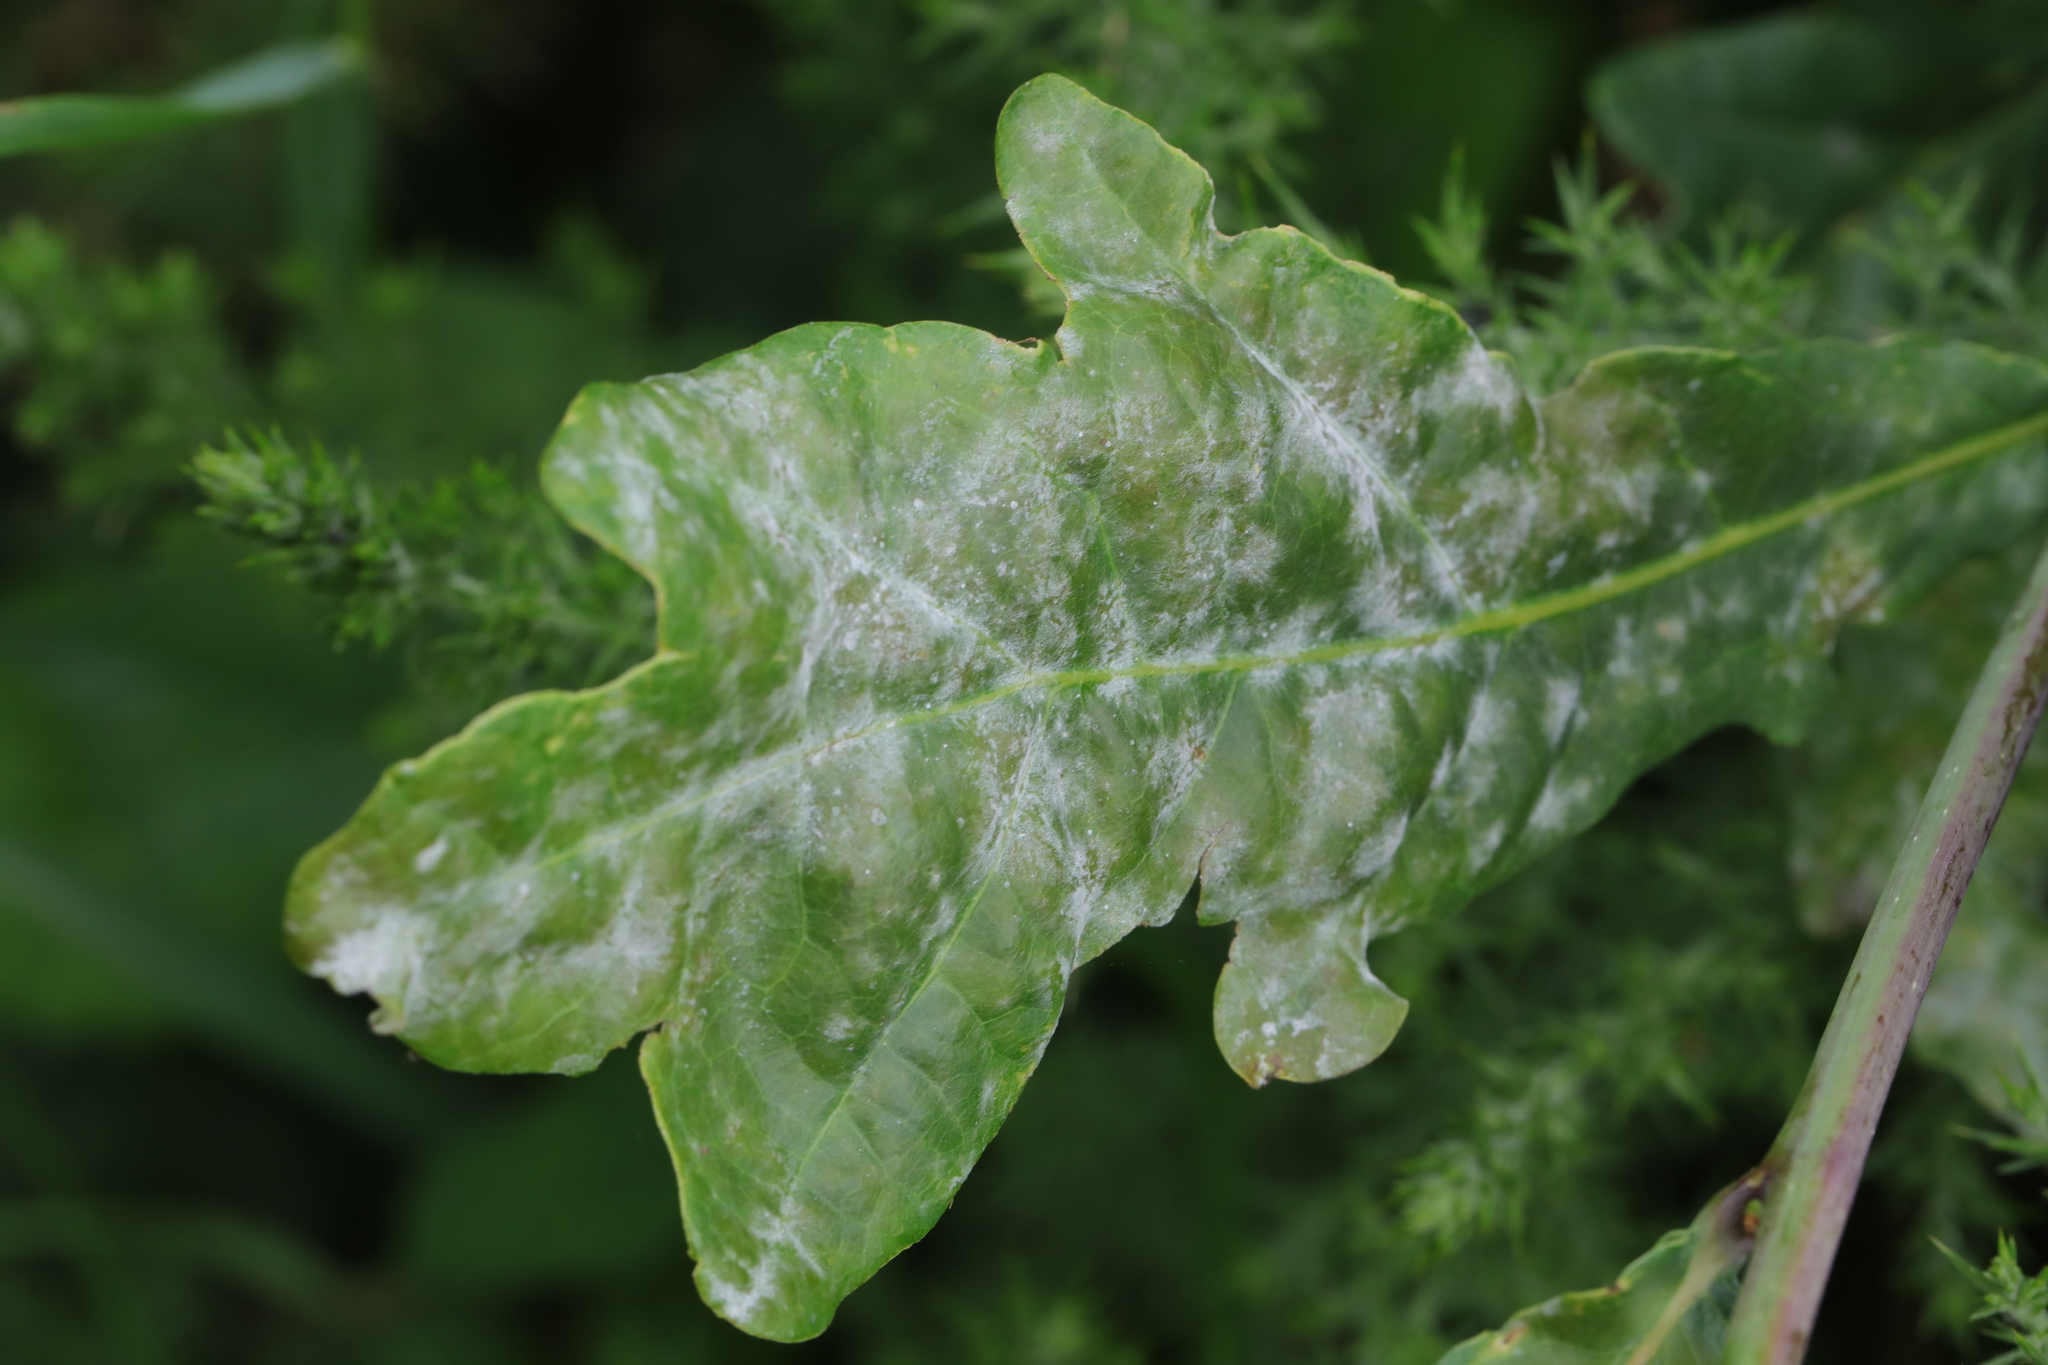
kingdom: Fungi
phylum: Ascomycota
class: Leotiomycetes
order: Helotiales
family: Erysiphaceae
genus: Erysiphe
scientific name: Erysiphe alphitoides
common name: Oak mildew
